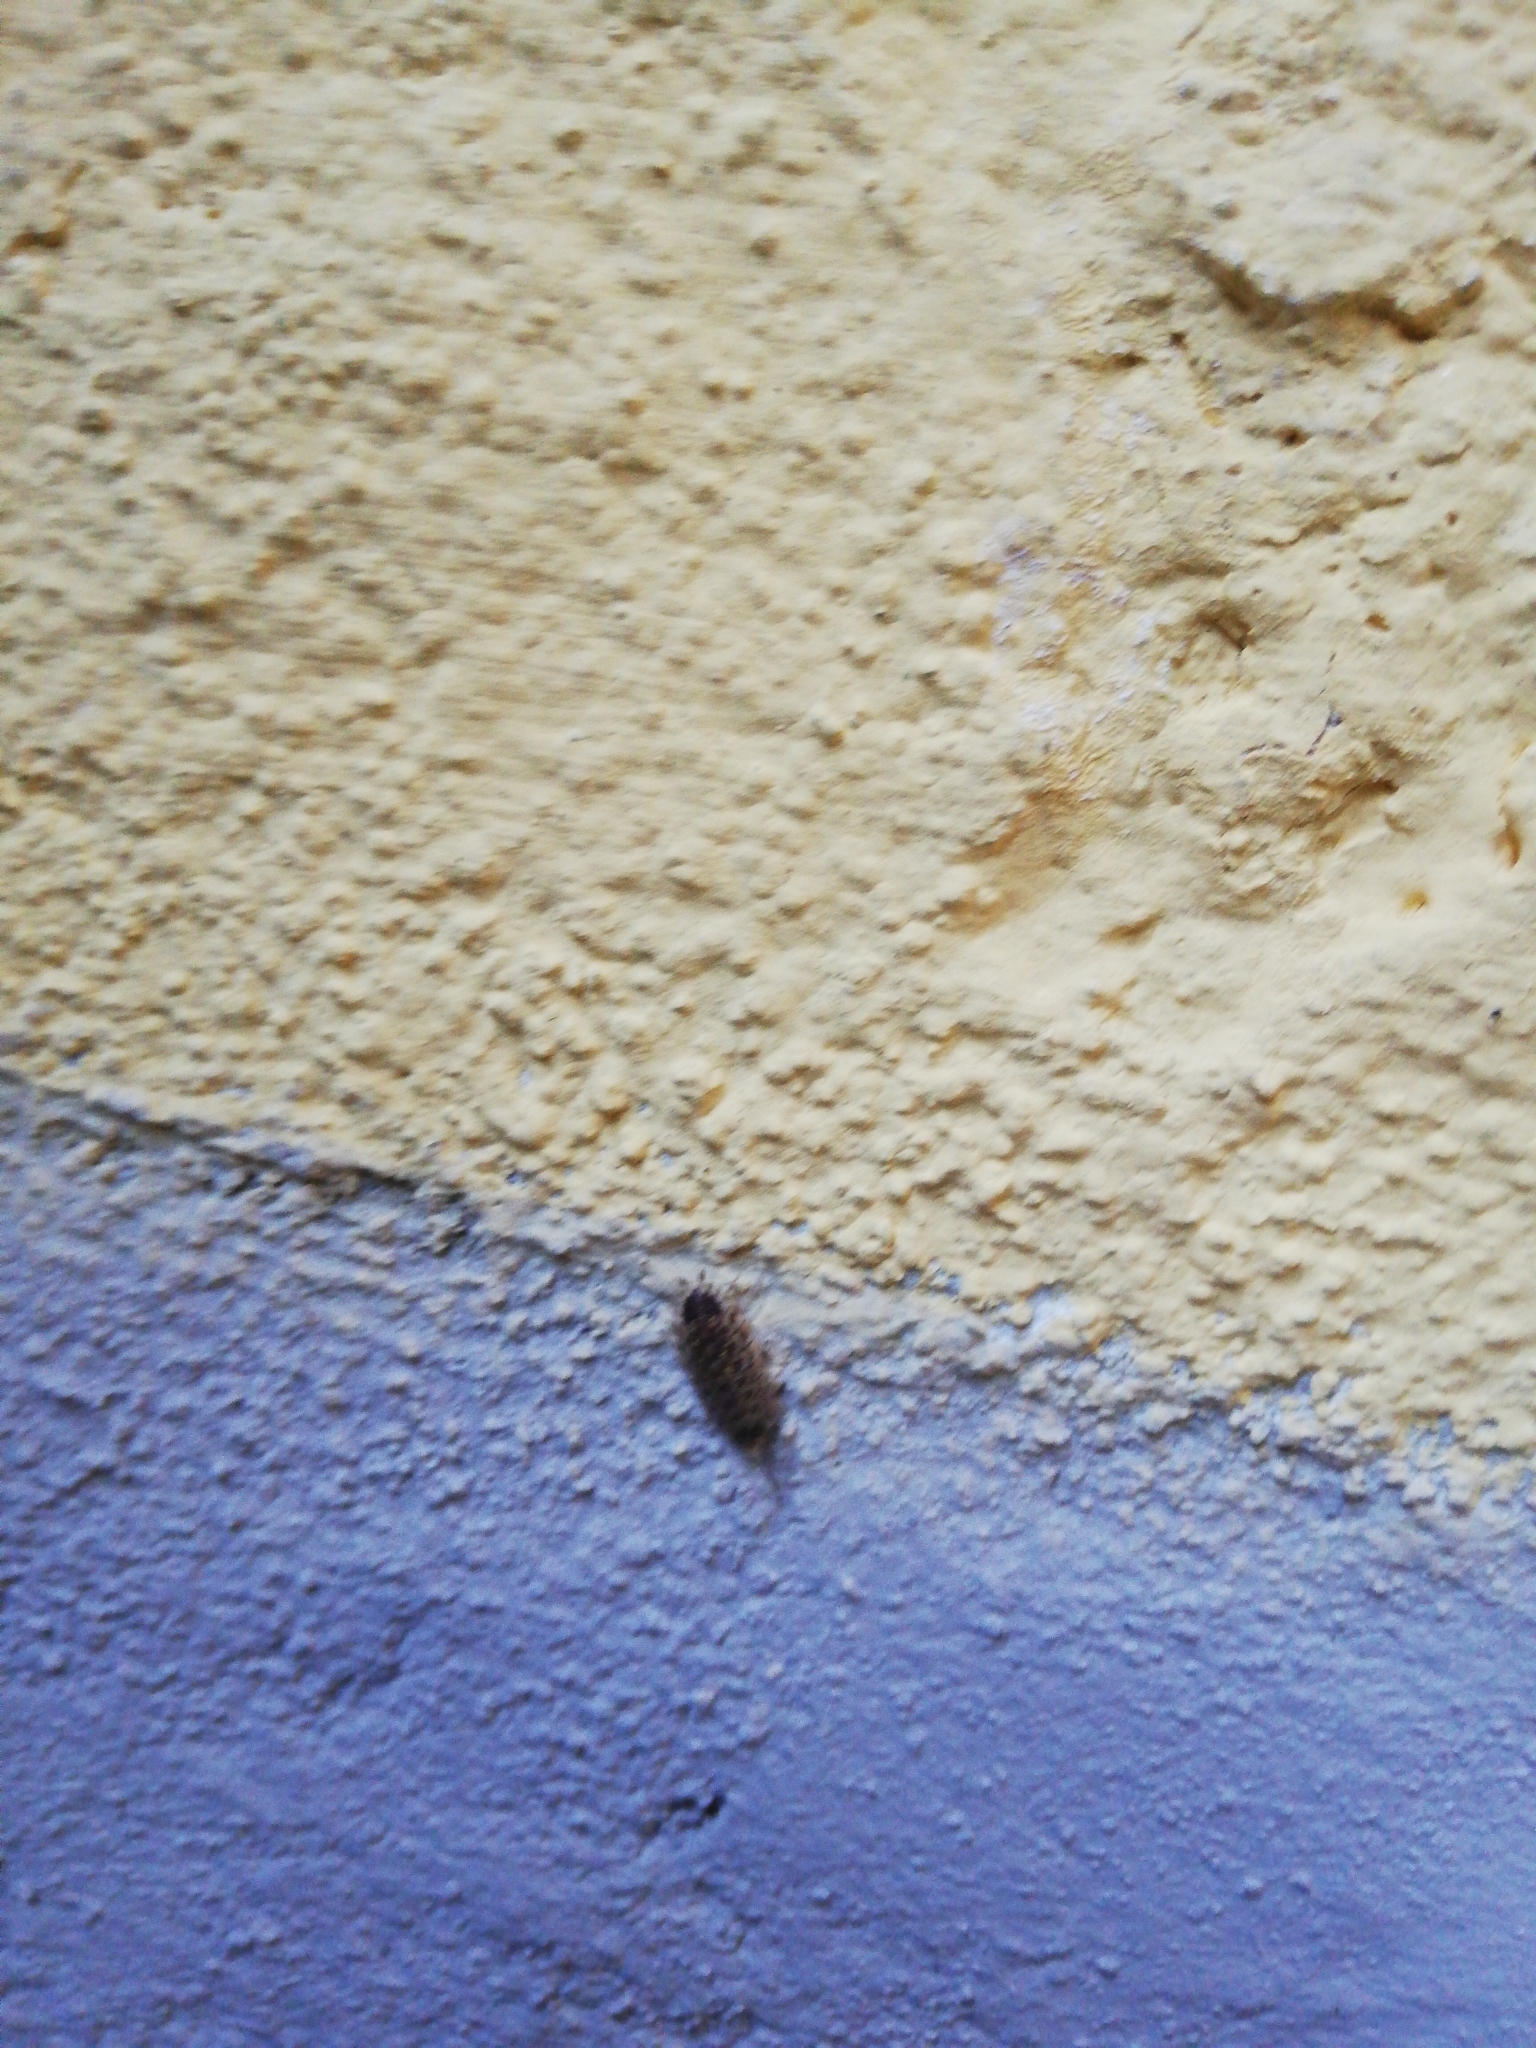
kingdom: Animalia
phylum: Arthropoda
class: Malacostraca
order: Isopoda
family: Porcellionidae
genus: Porcellio
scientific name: Porcellio spinicornis
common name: Painted woodlouse
